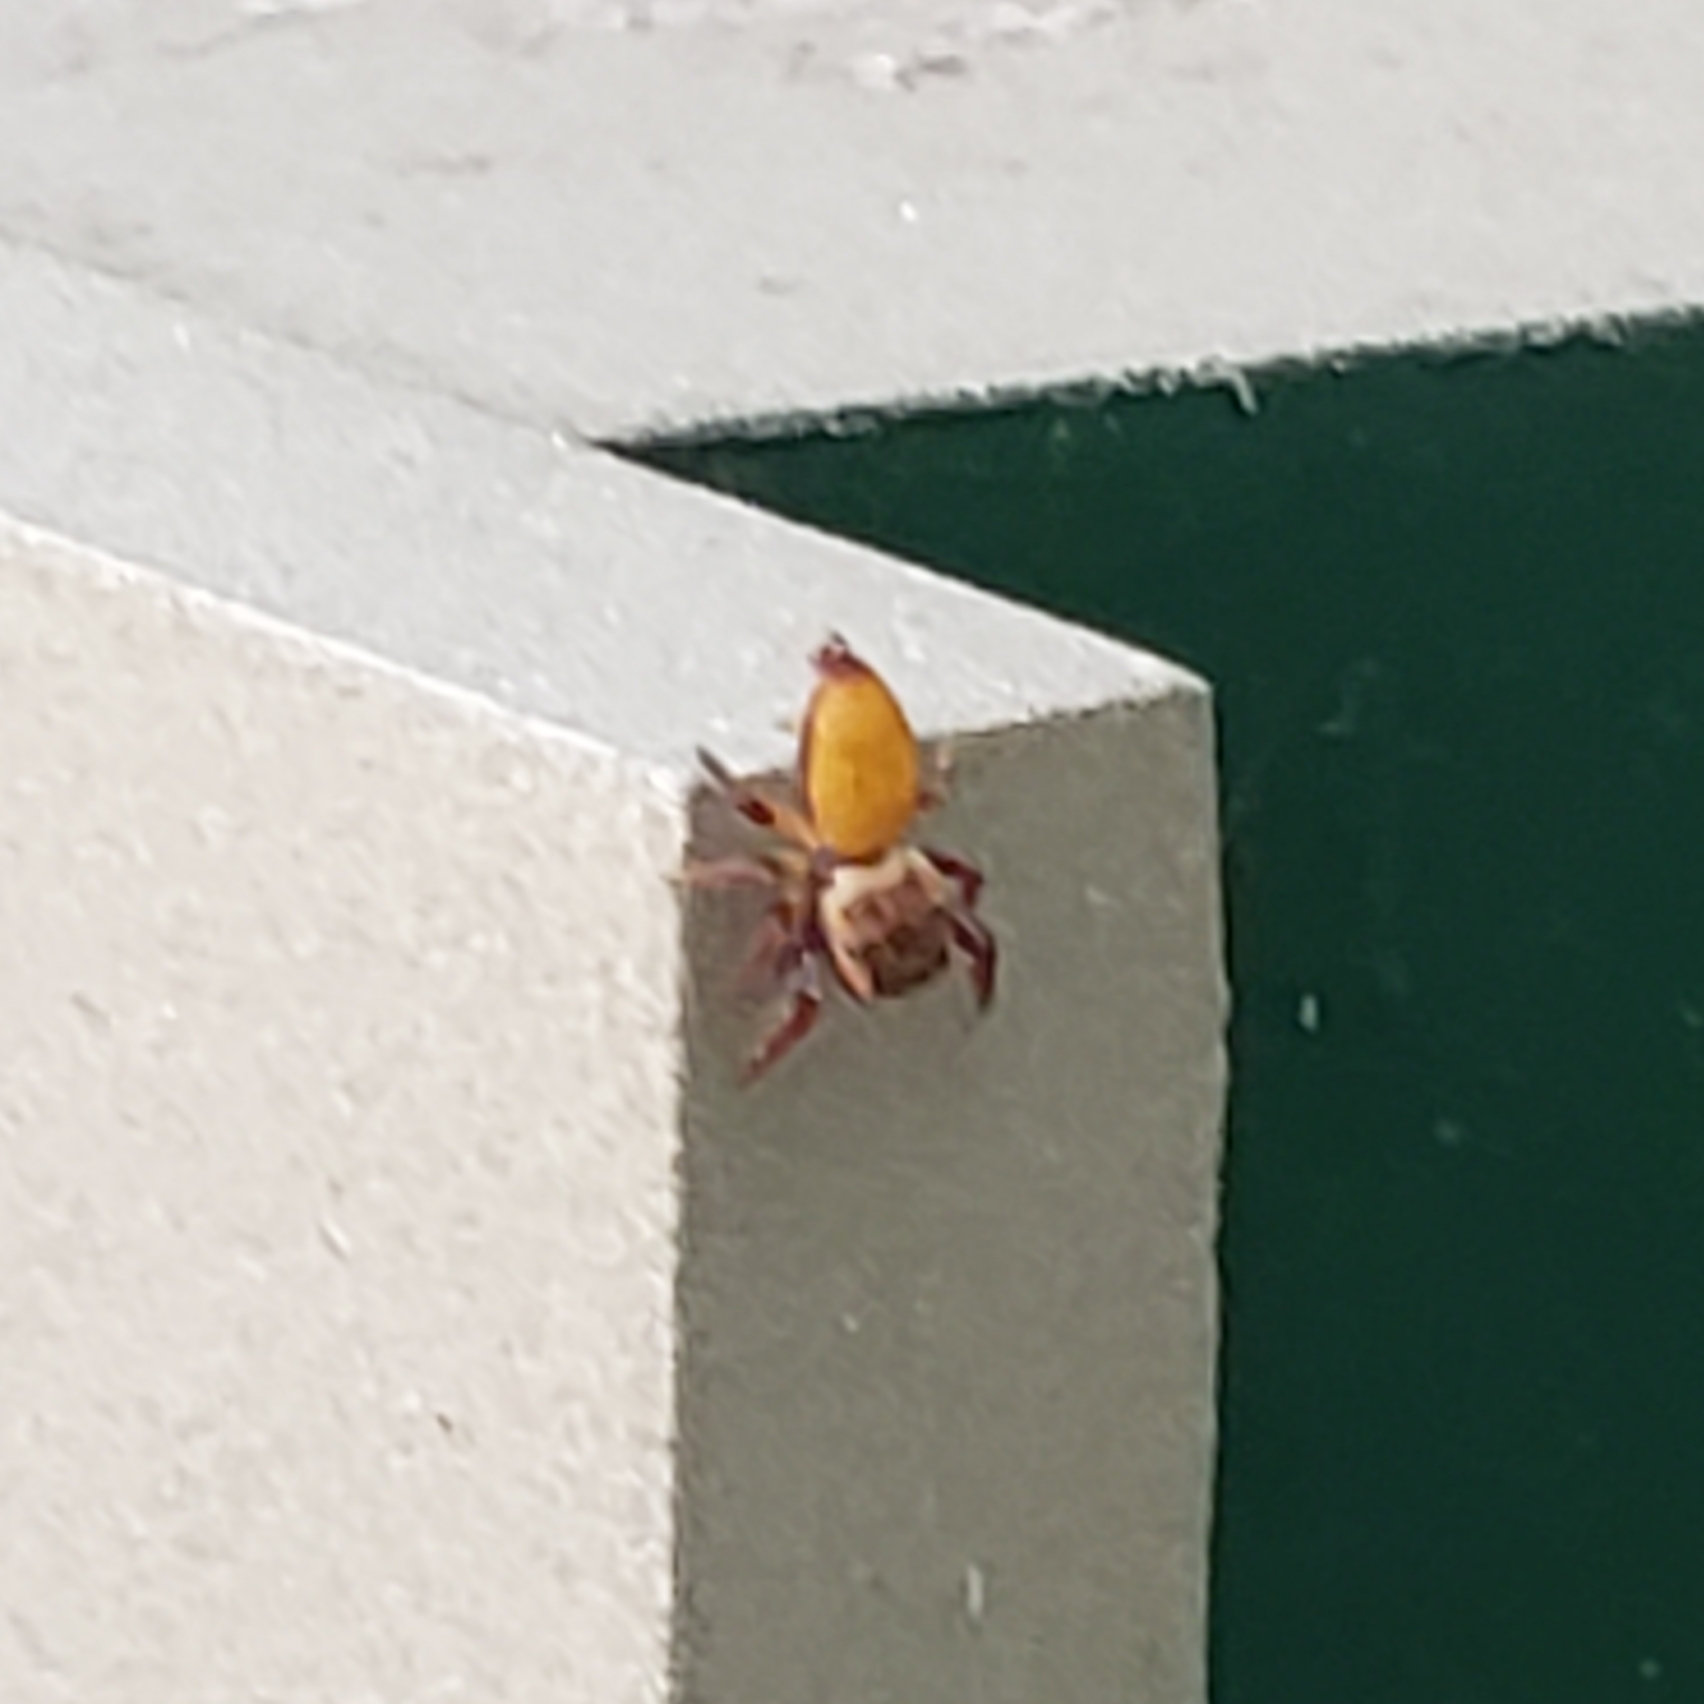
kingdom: Animalia
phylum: Arthropoda
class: Arachnida
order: Araneae
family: Salticidae
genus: Beata
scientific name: Beata wickhami
